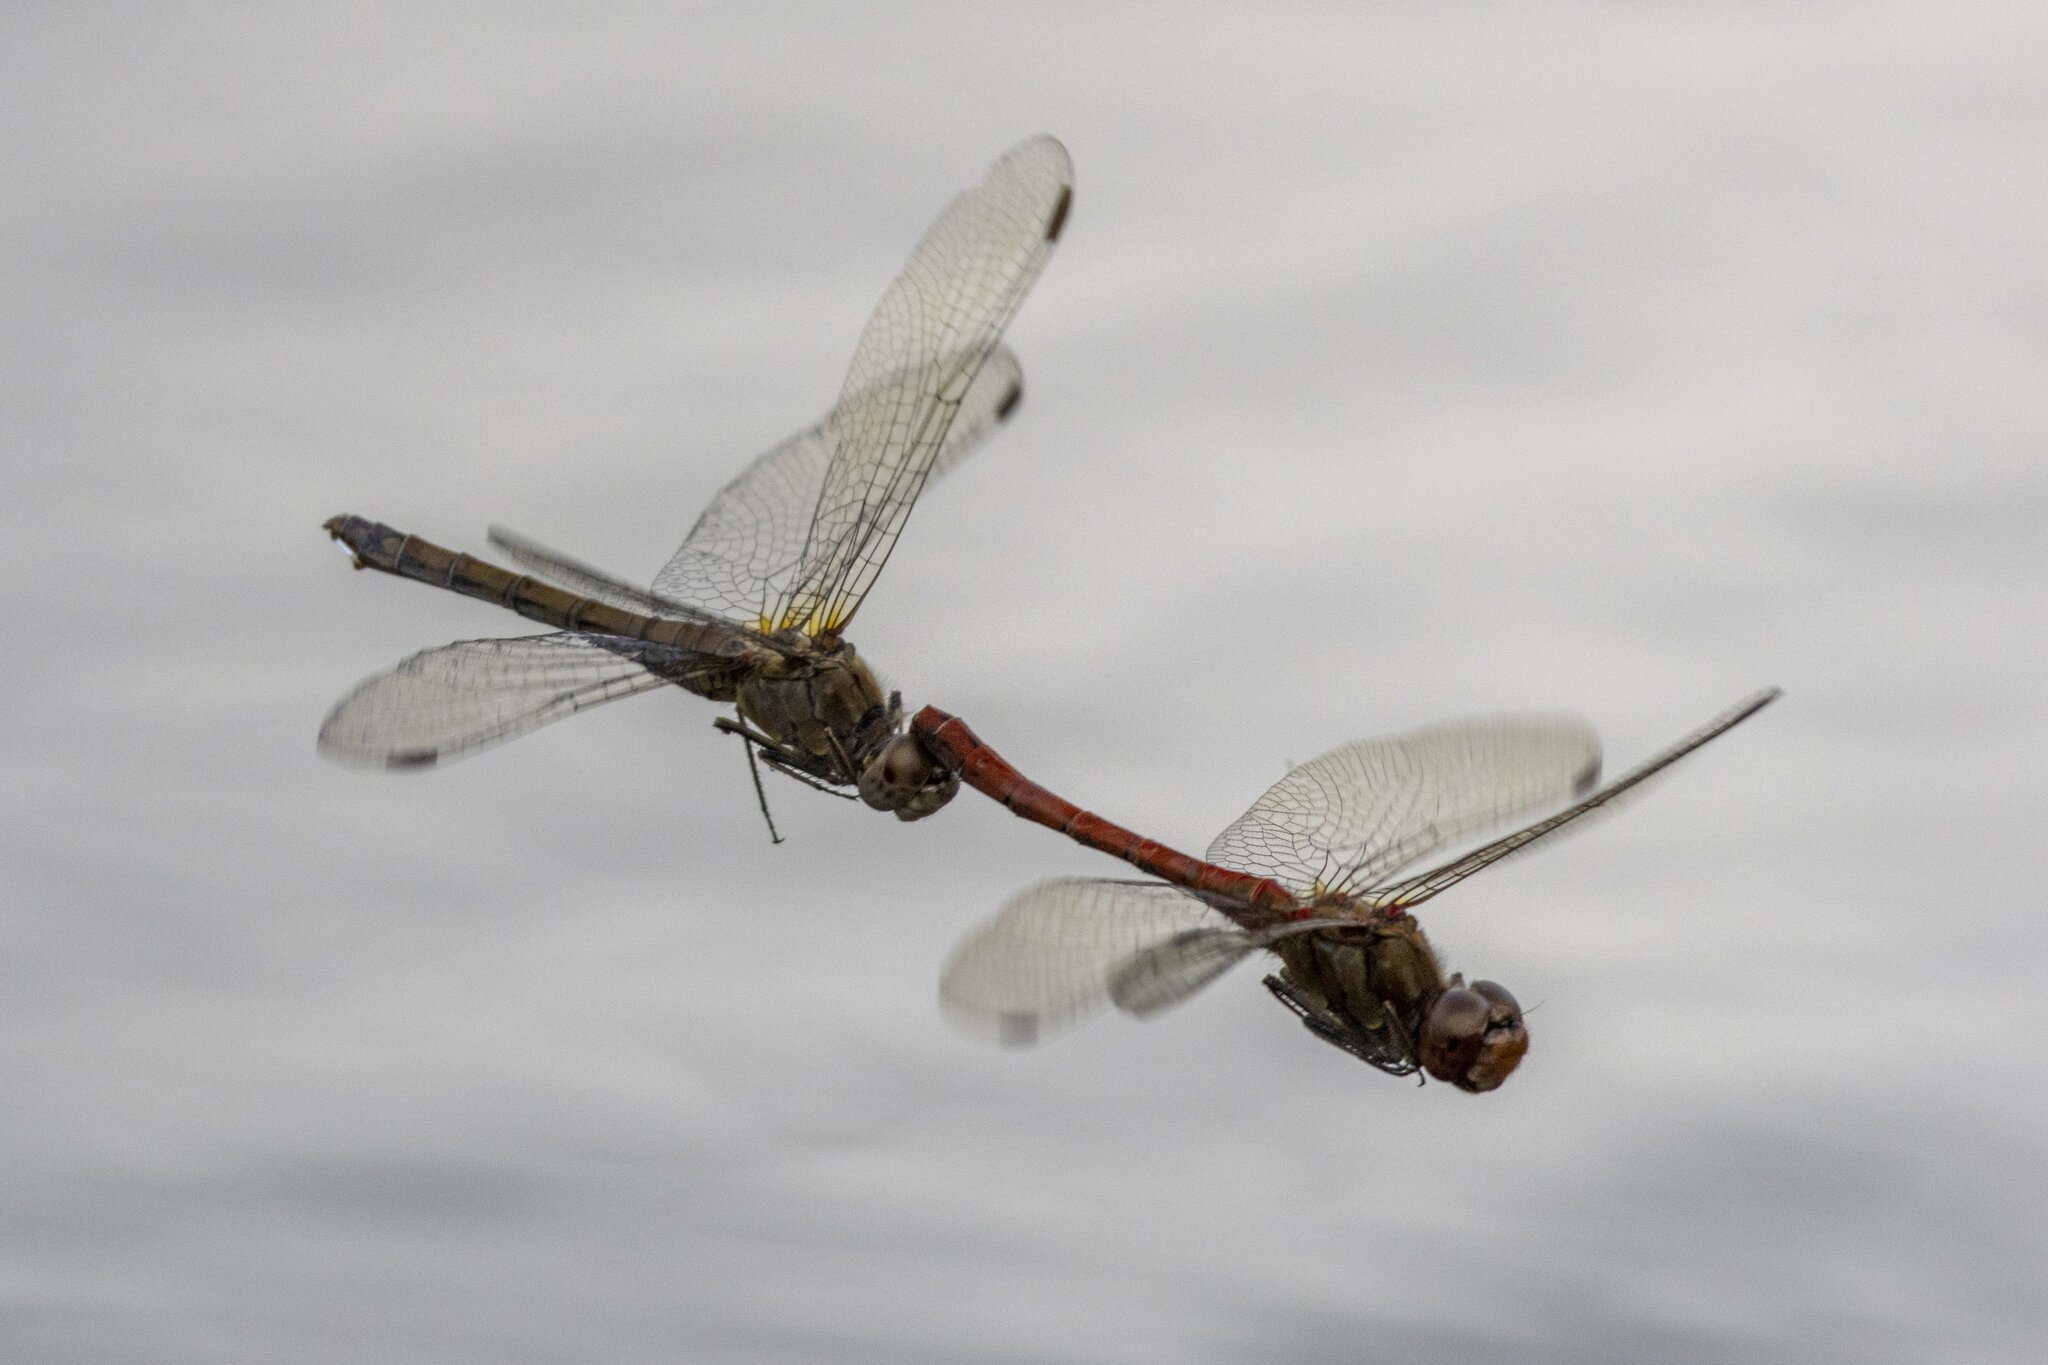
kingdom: Animalia
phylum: Arthropoda
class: Insecta
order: Odonata
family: Libellulidae
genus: Sympetrum
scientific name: Sympetrum striolatum
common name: Common darter
